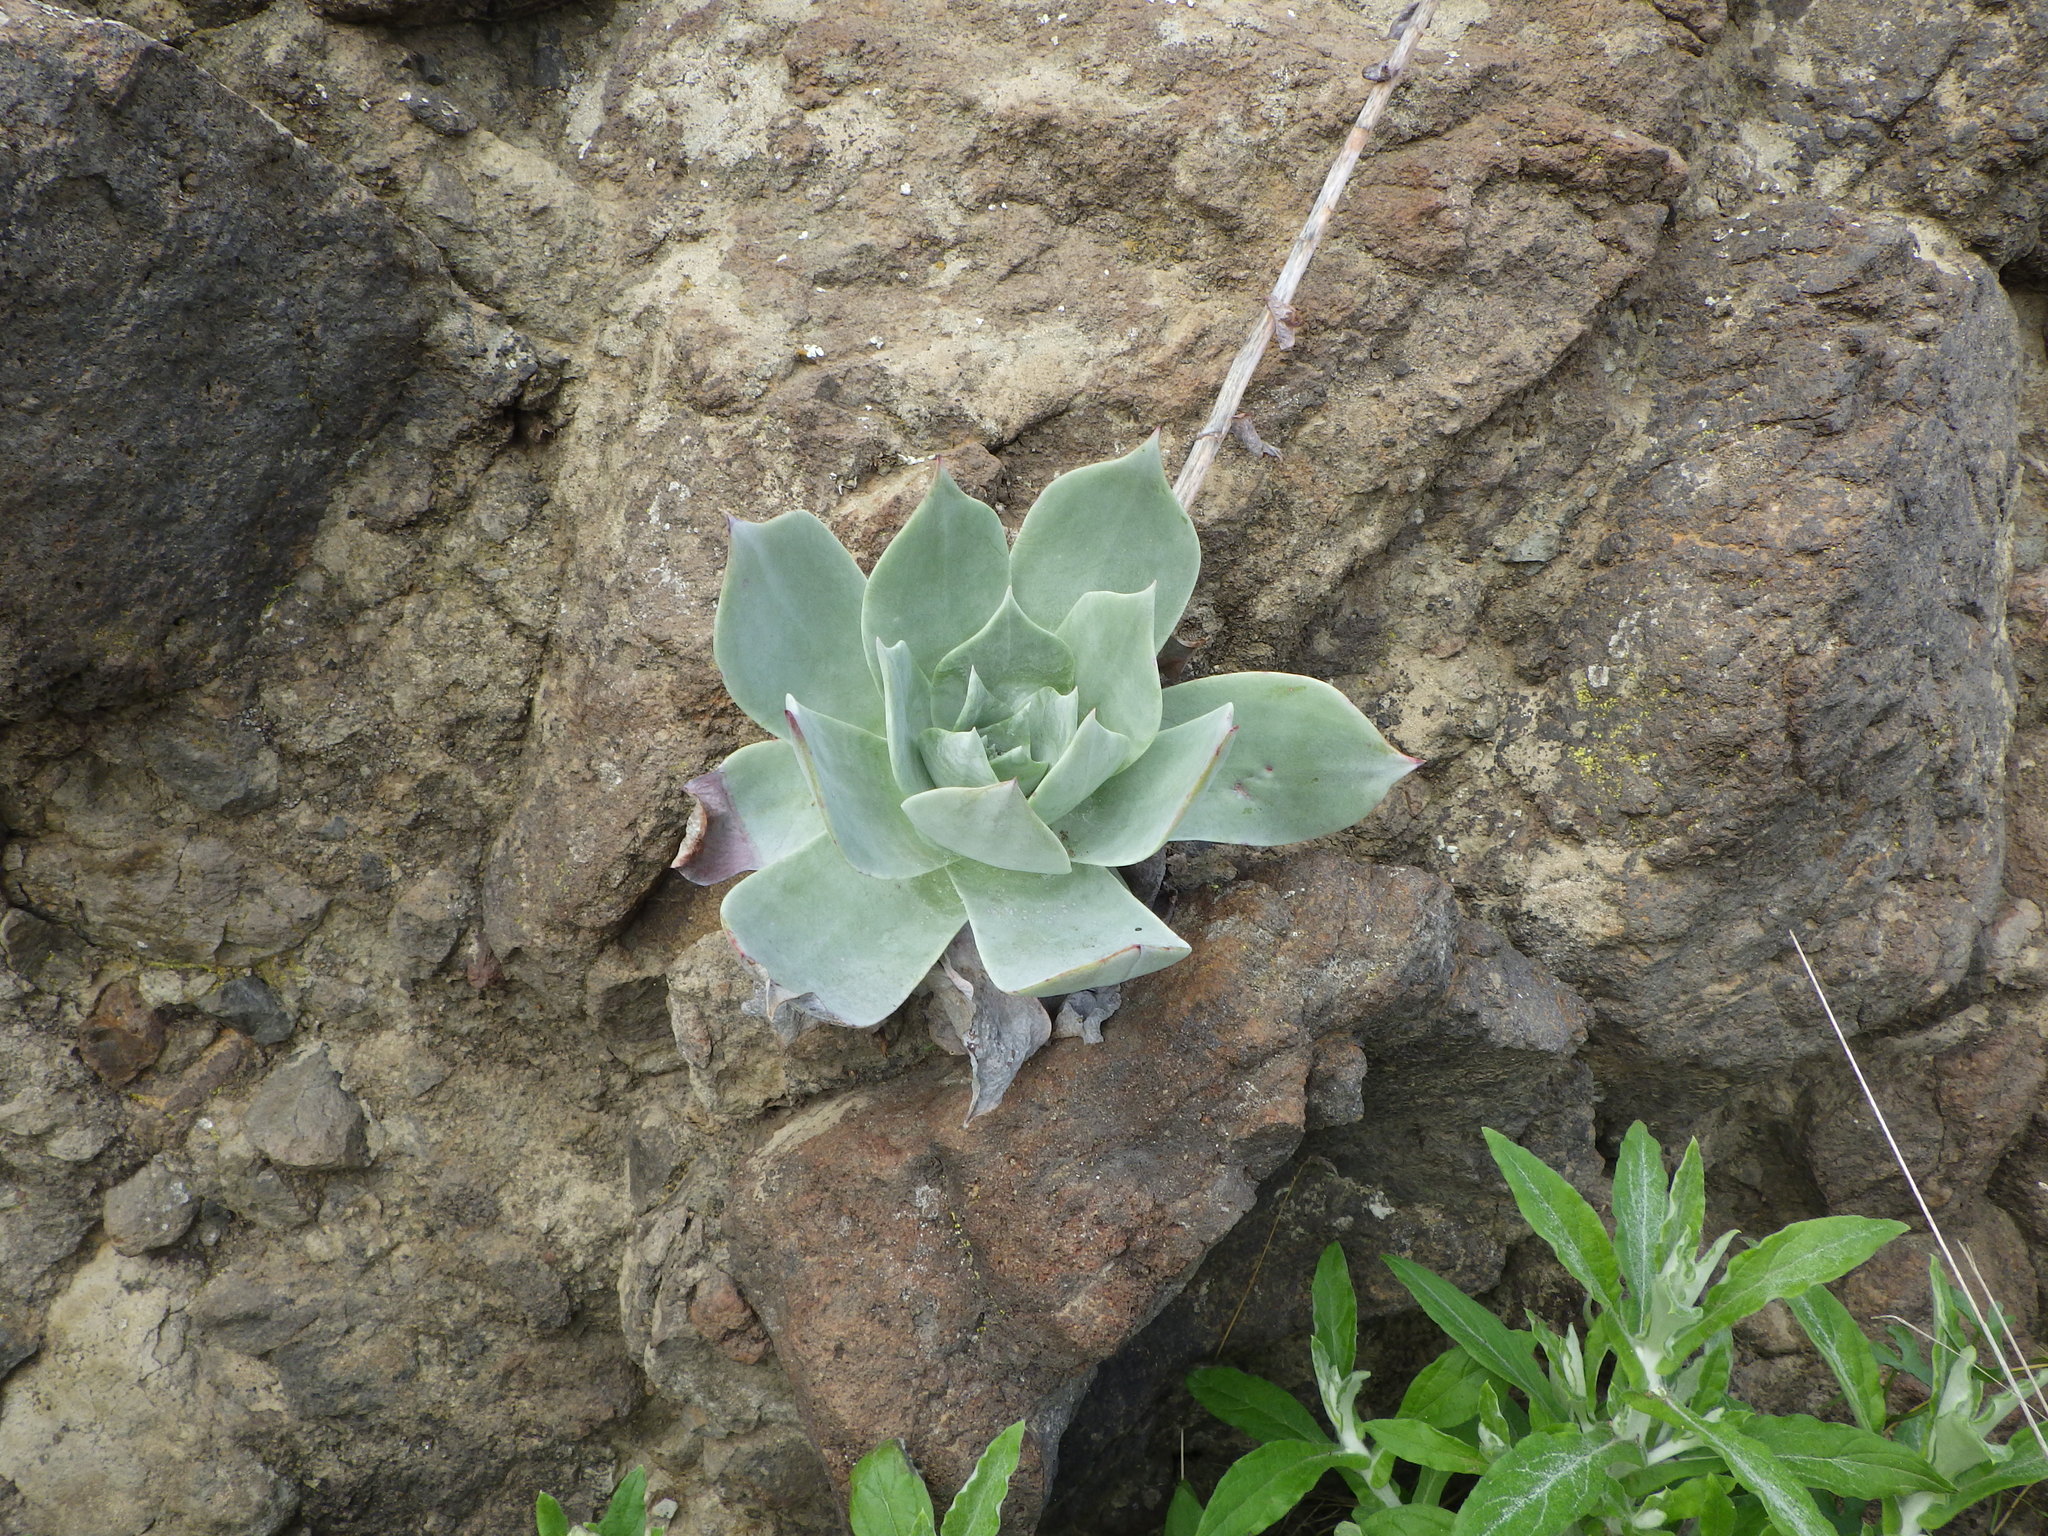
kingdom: Plantae
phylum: Tracheophyta
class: Magnoliopsida
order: Saxifragales
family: Crassulaceae
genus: Dudleya
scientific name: Dudleya pulverulenta
